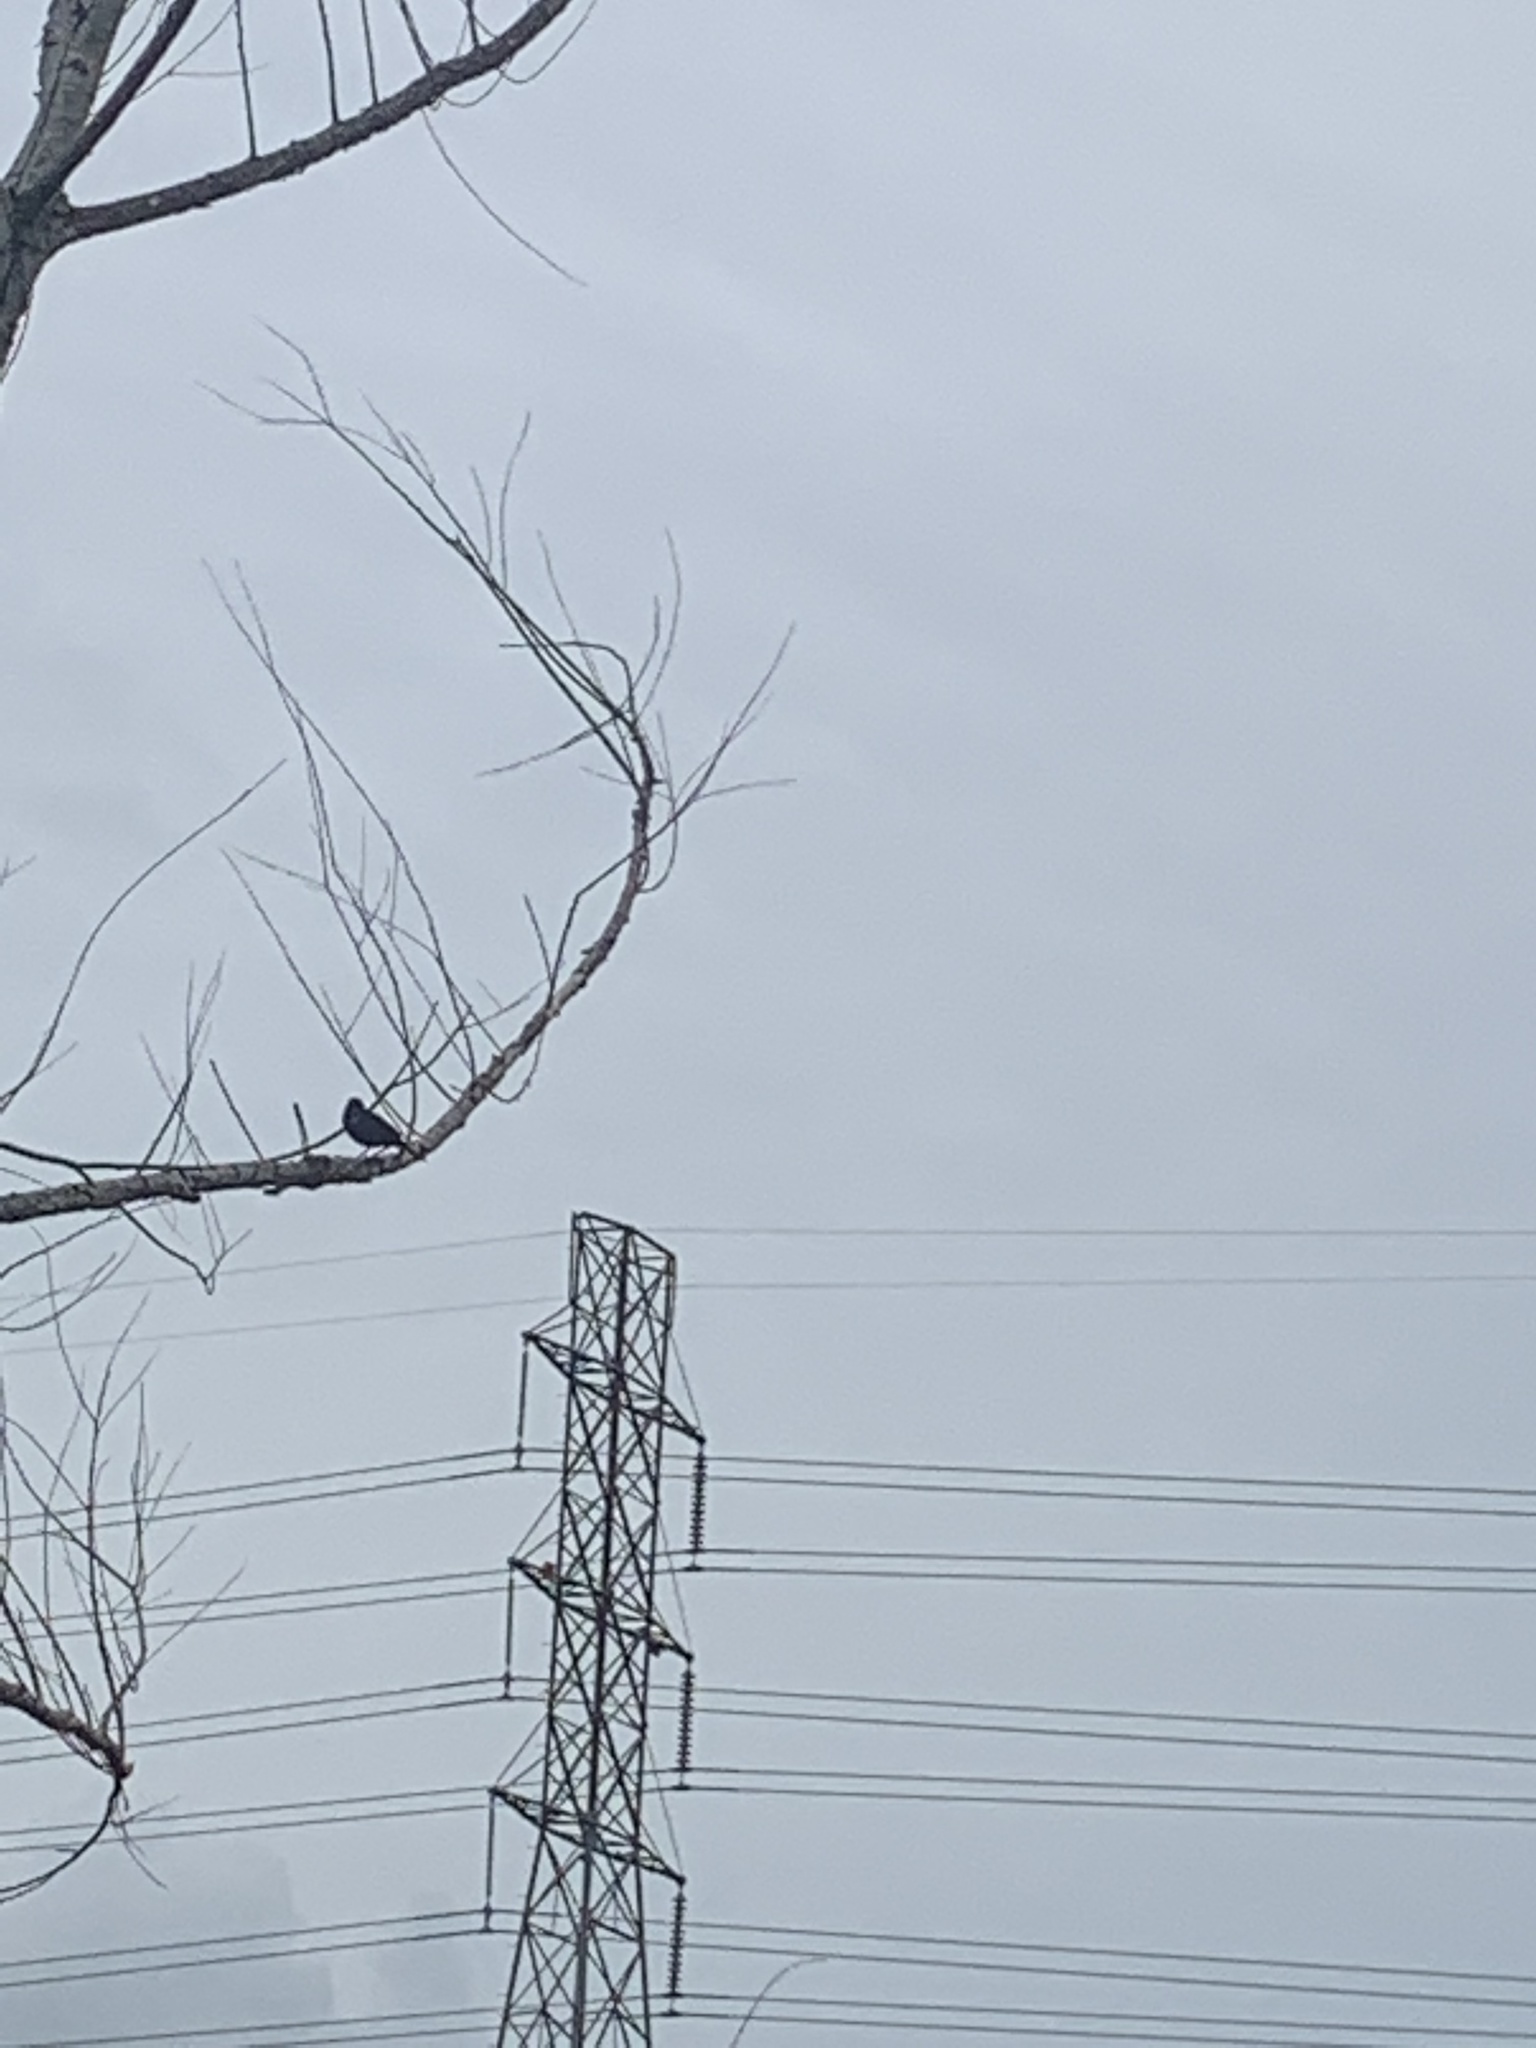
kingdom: Animalia
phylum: Chordata
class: Aves
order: Passeriformes
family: Icteridae
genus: Agelaius
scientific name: Agelaius phoeniceus
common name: Red-winged blackbird
